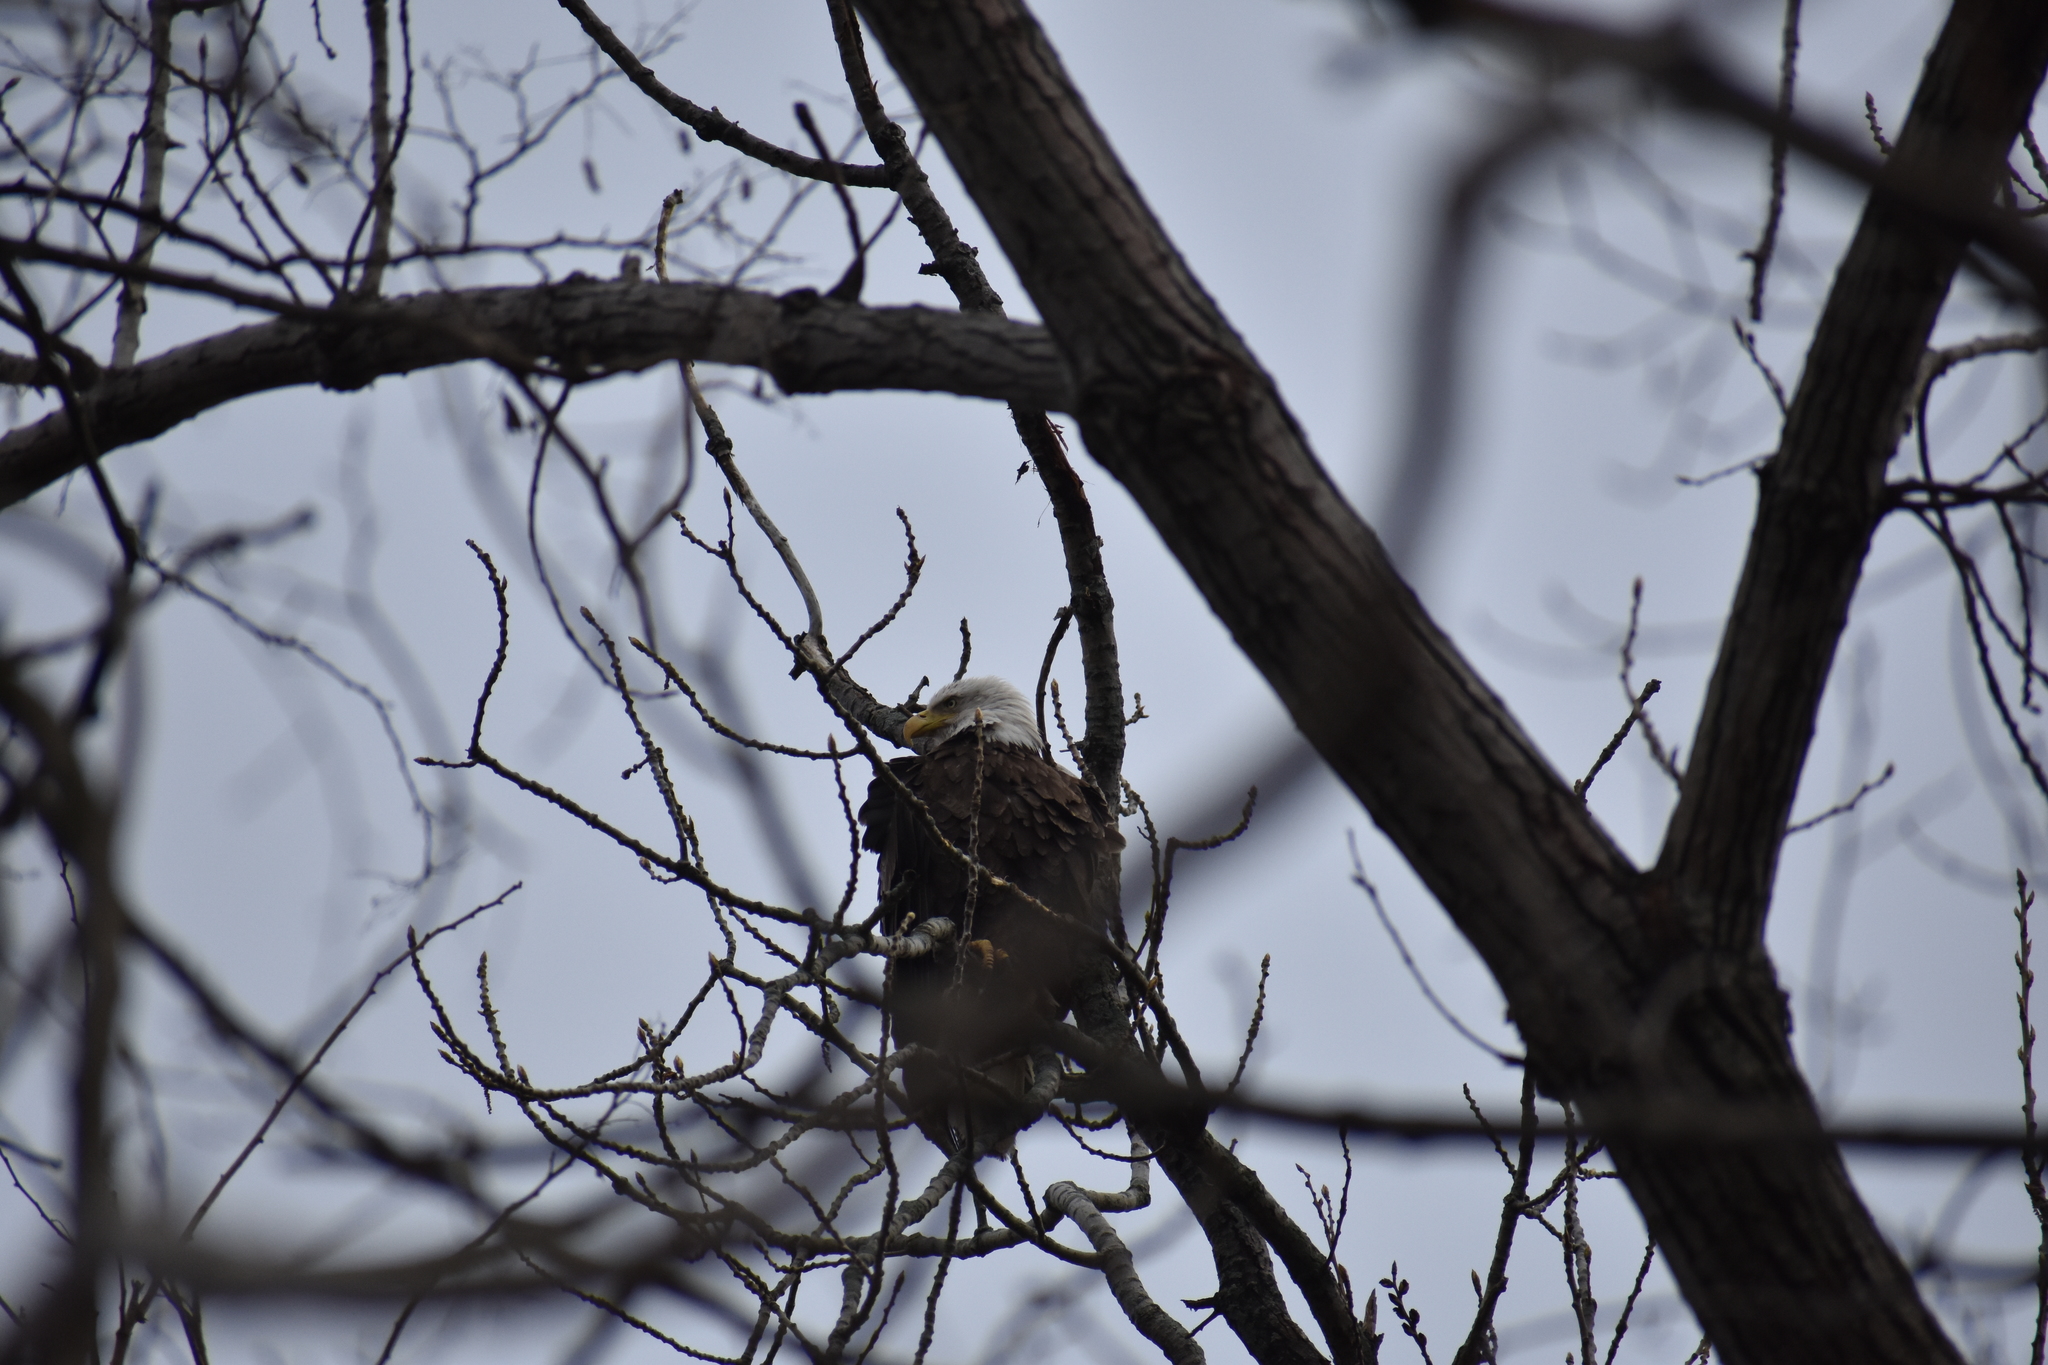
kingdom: Animalia
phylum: Chordata
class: Aves
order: Accipitriformes
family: Accipitridae
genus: Haliaeetus
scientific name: Haliaeetus leucocephalus
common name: Bald eagle
